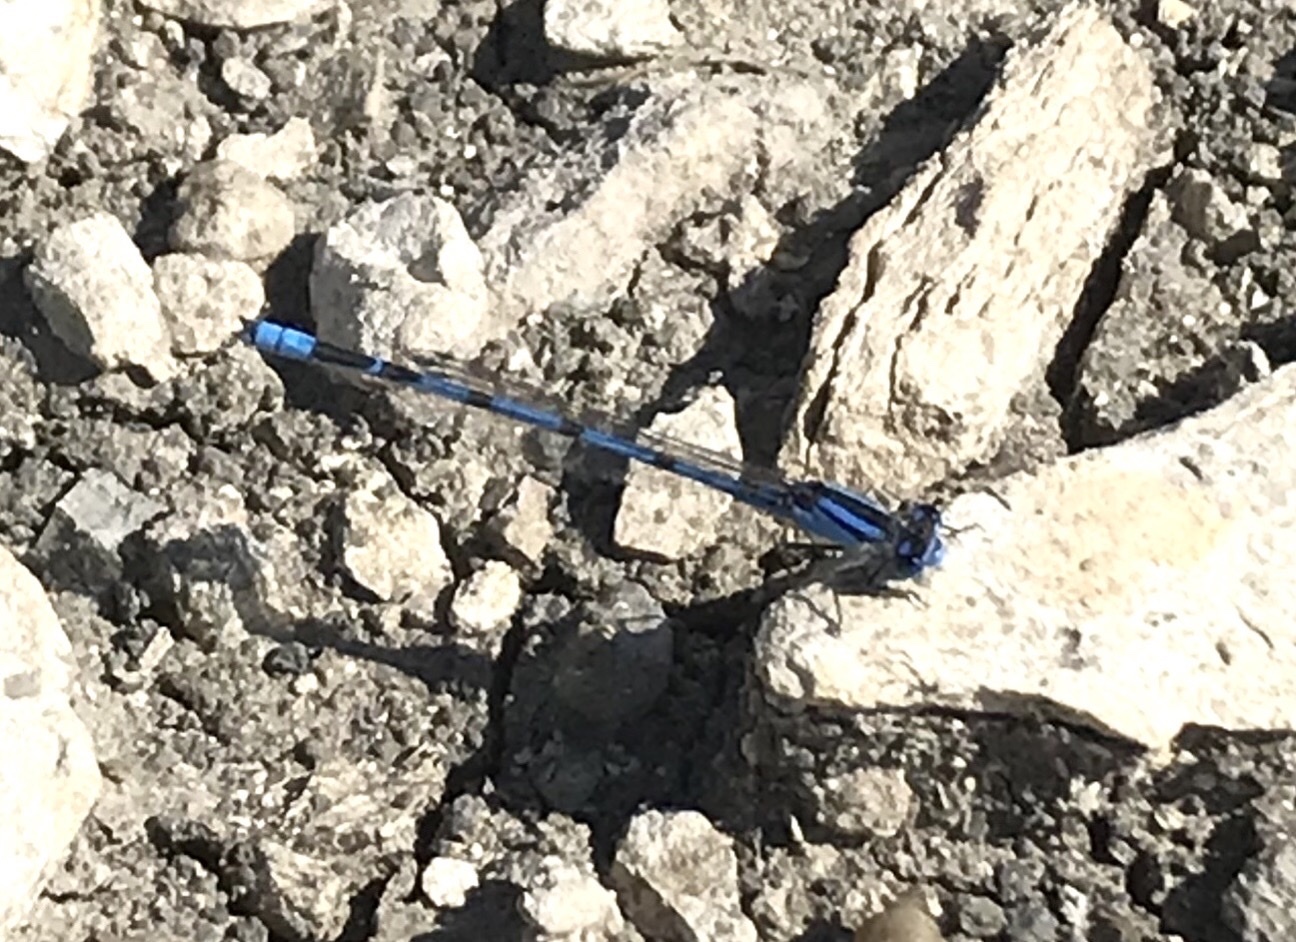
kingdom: Animalia
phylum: Arthropoda
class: Insecta
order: Odonata
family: Coenagrionidae
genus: Enallagma
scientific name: Enallagma civile
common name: Damselfly
